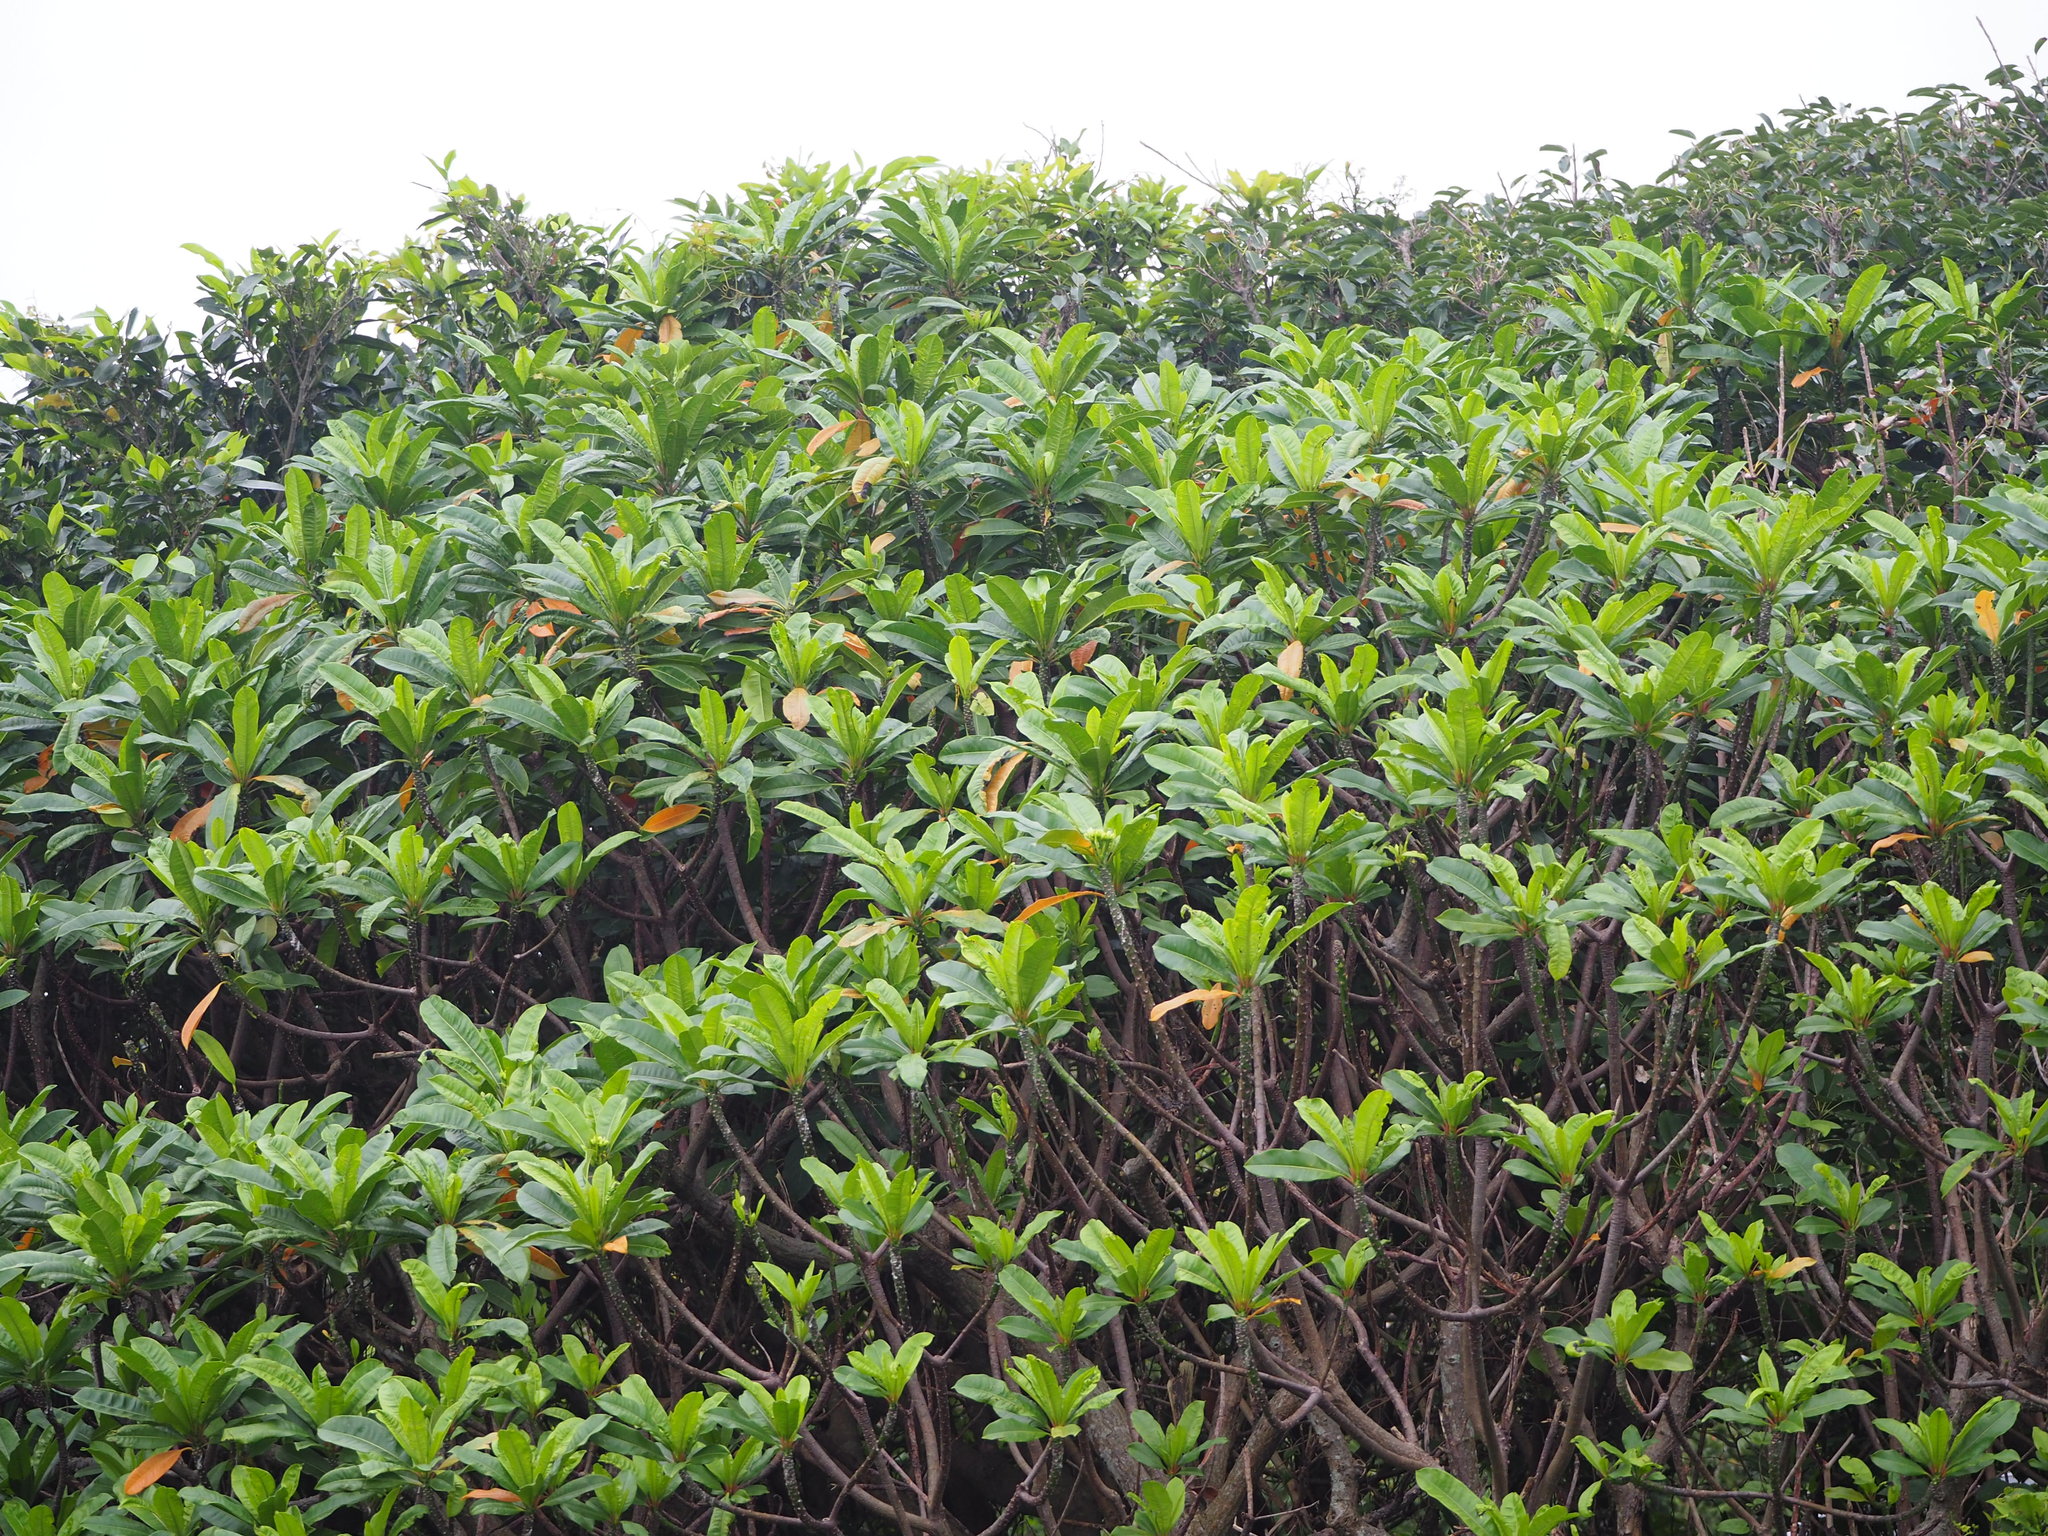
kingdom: Plantae
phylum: Tracheophyta
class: Magnoliopsida
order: Gentianales
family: Apocynaceae
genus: Cerbera
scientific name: Cerbera manghas
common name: Reva
